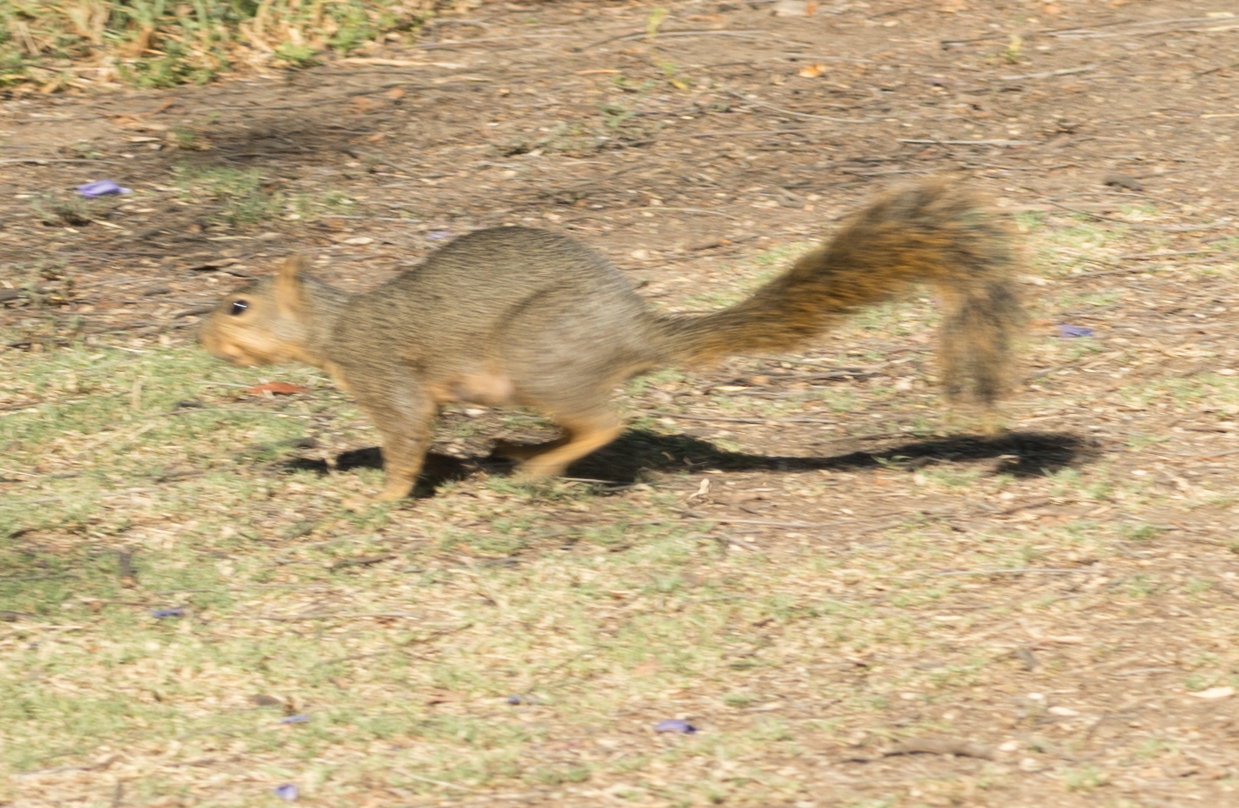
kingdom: Animalia
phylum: Chordata
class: Mammalia
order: Rodentia
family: Sciuridae
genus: Sciurus
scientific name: Sciurus niger
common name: Fox squirrel
